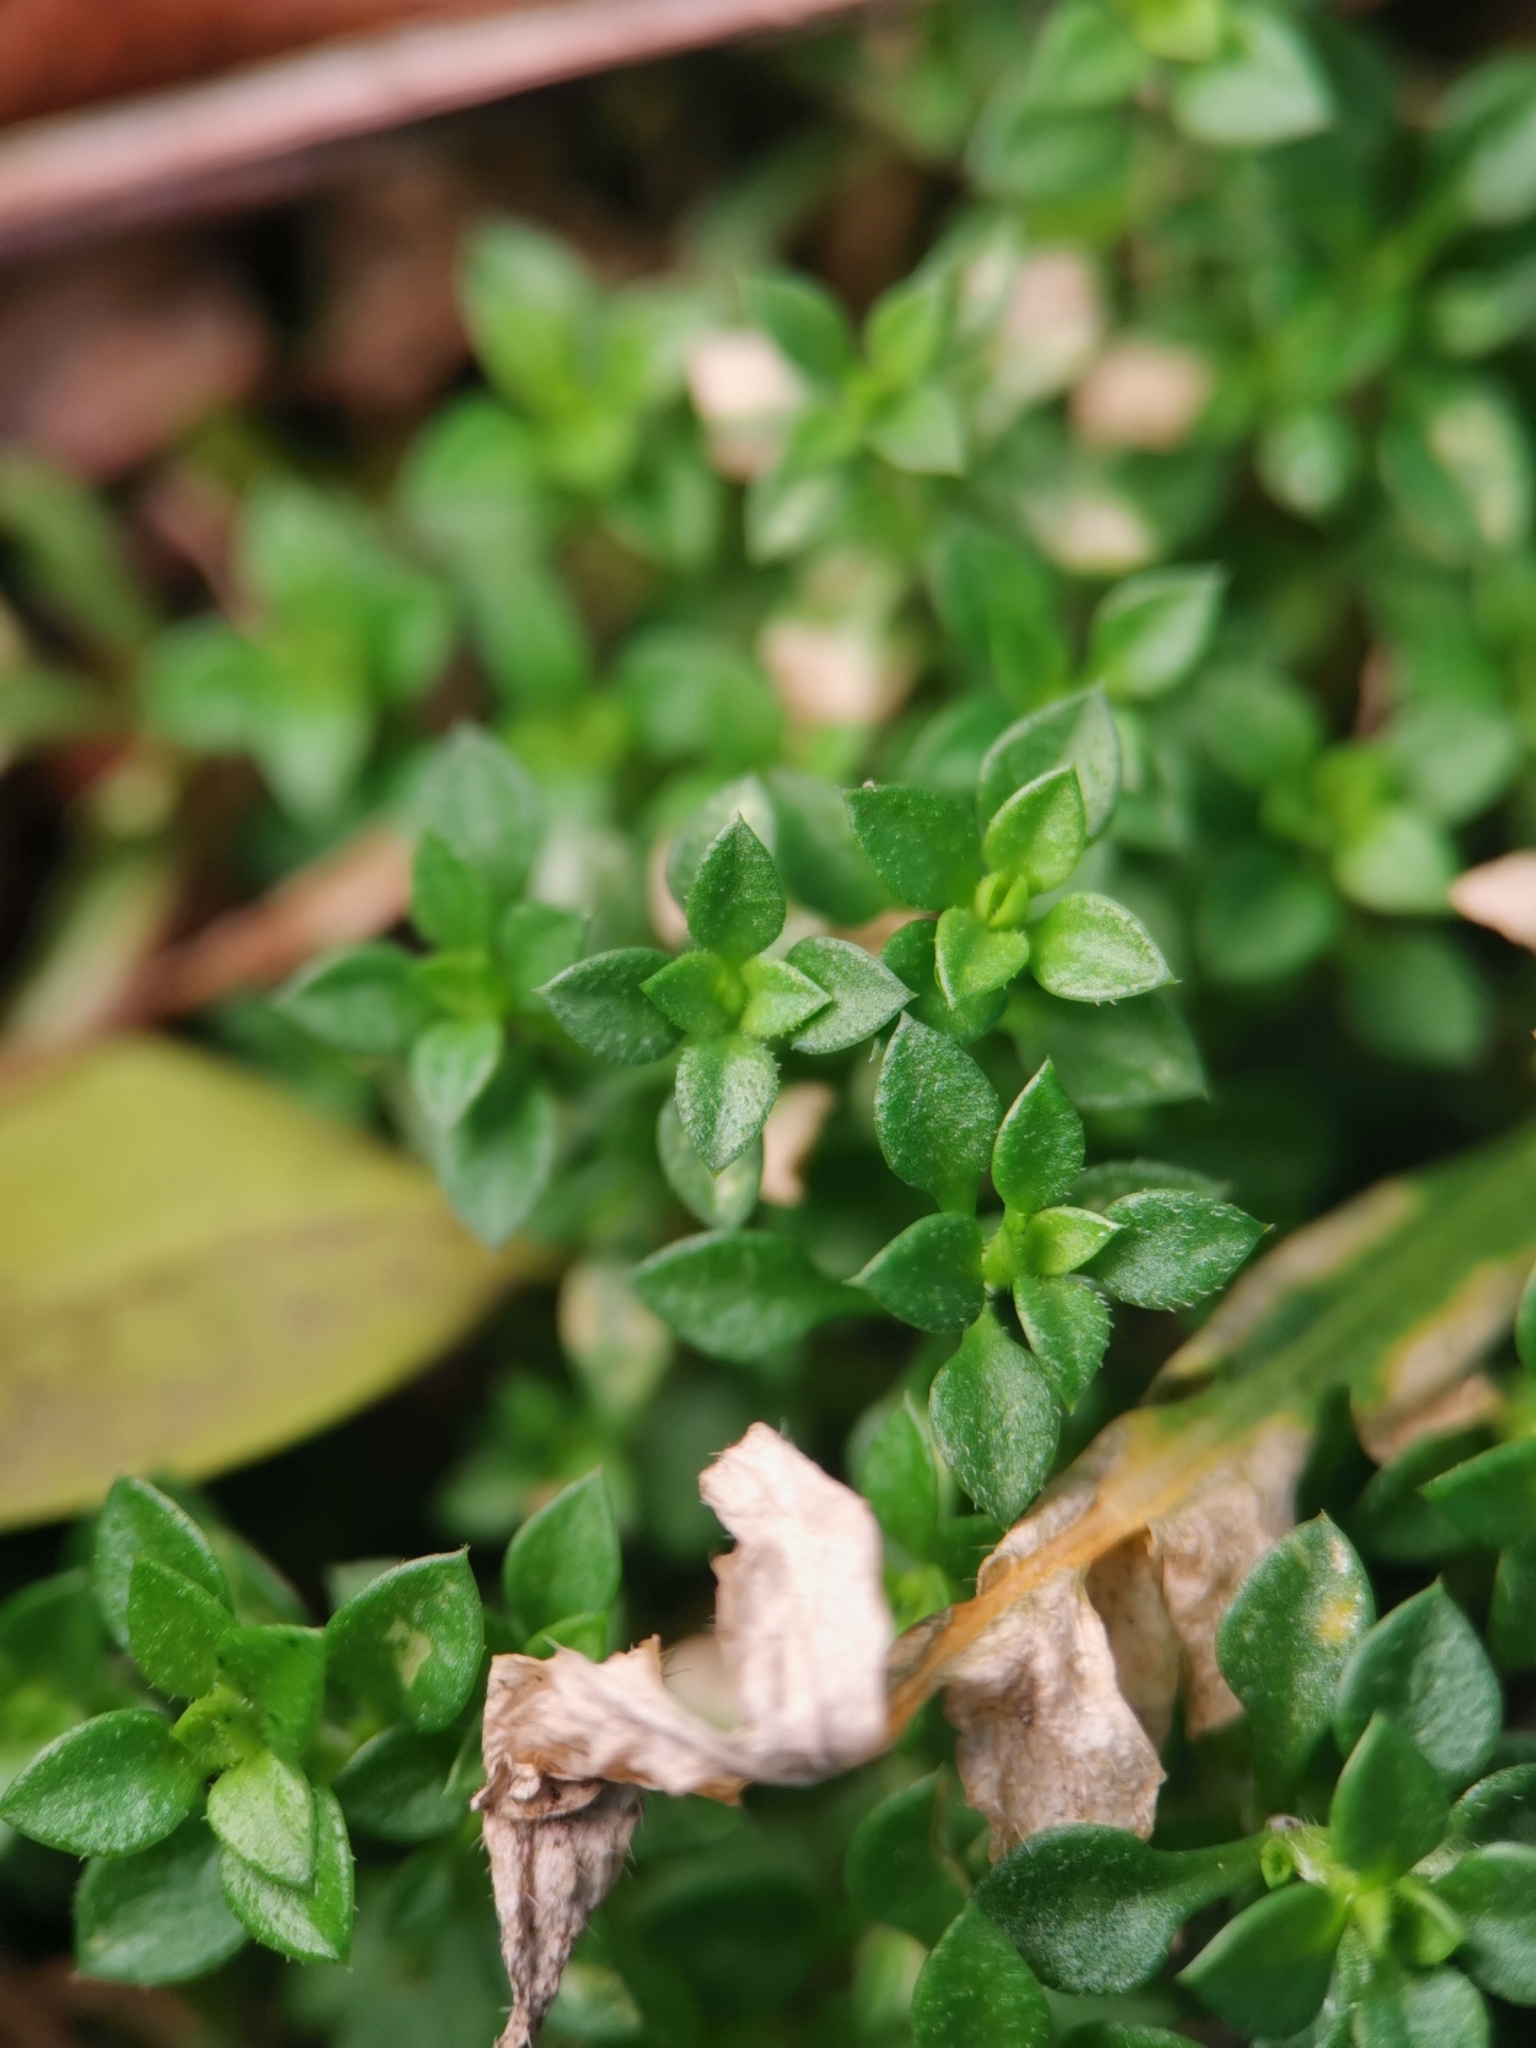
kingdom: Plantae
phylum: Tracheophyta
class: Magnoliopsida
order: Caryophyllales
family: Caryophyllaceae
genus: Arenaria
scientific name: Arenaria serpyllifolia
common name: Thyme-leaved sandwort
